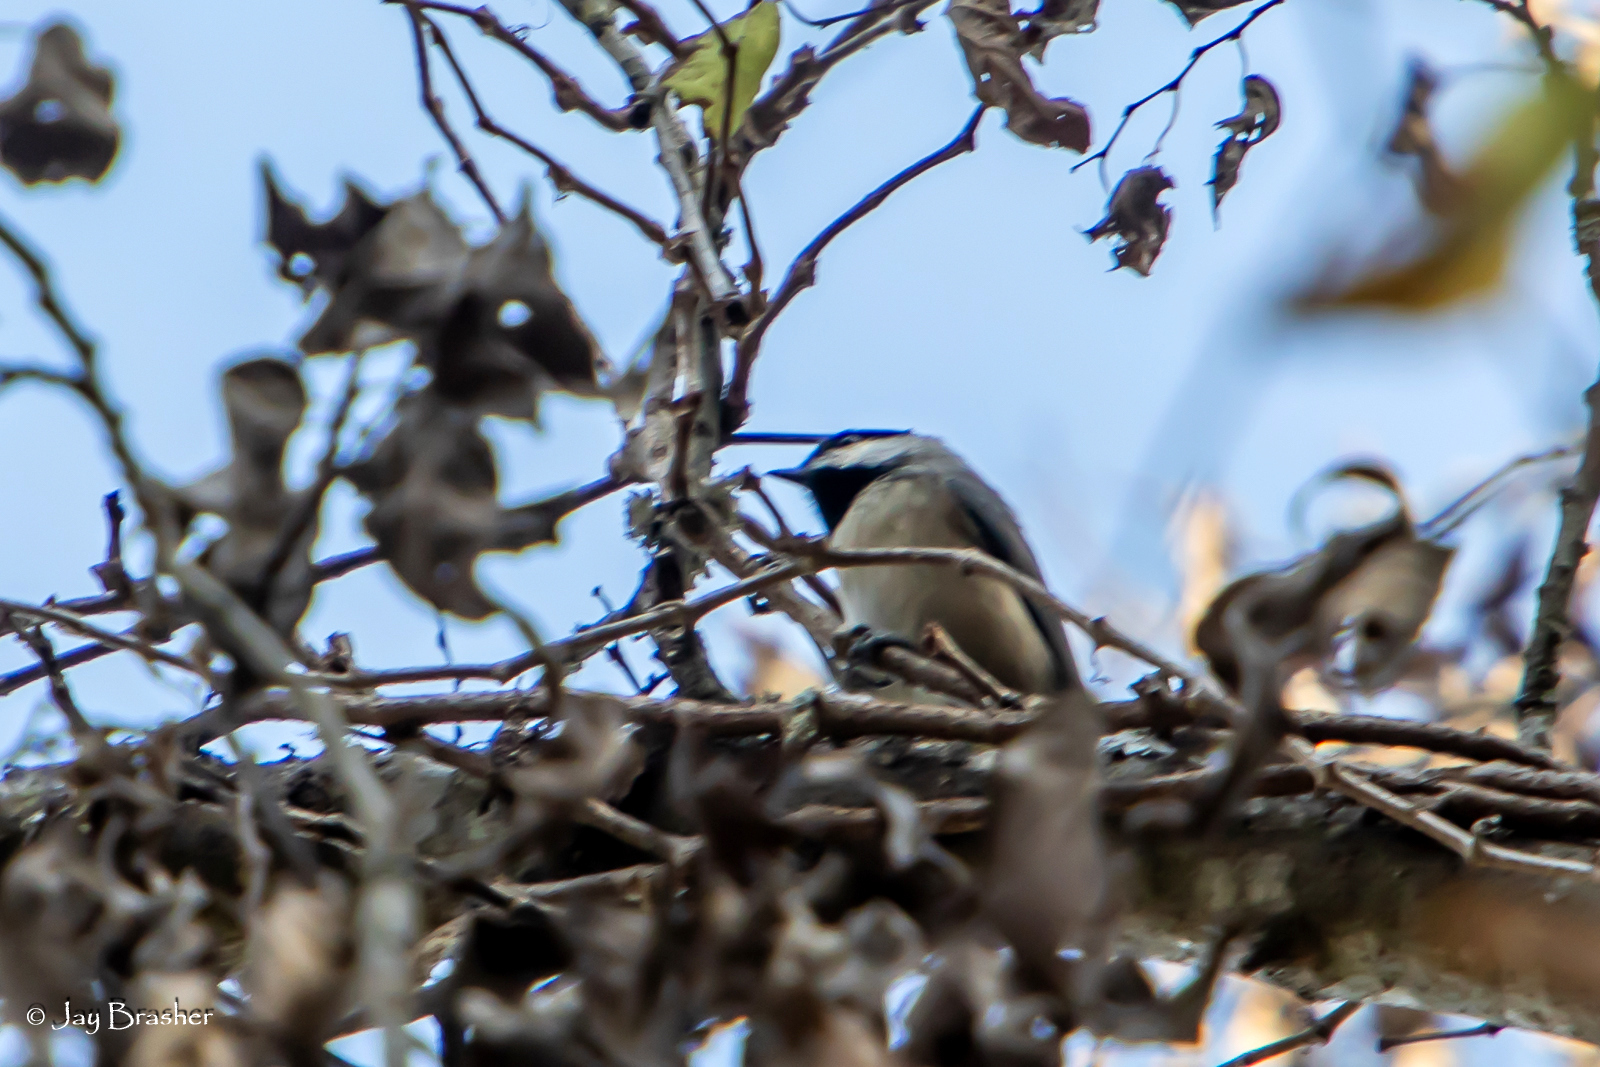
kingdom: Animalia
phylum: Chordata
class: Aves
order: Passeriformes
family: Paridae
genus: Poecile
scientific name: Poecile carolinensis
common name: Carolina chickadee
